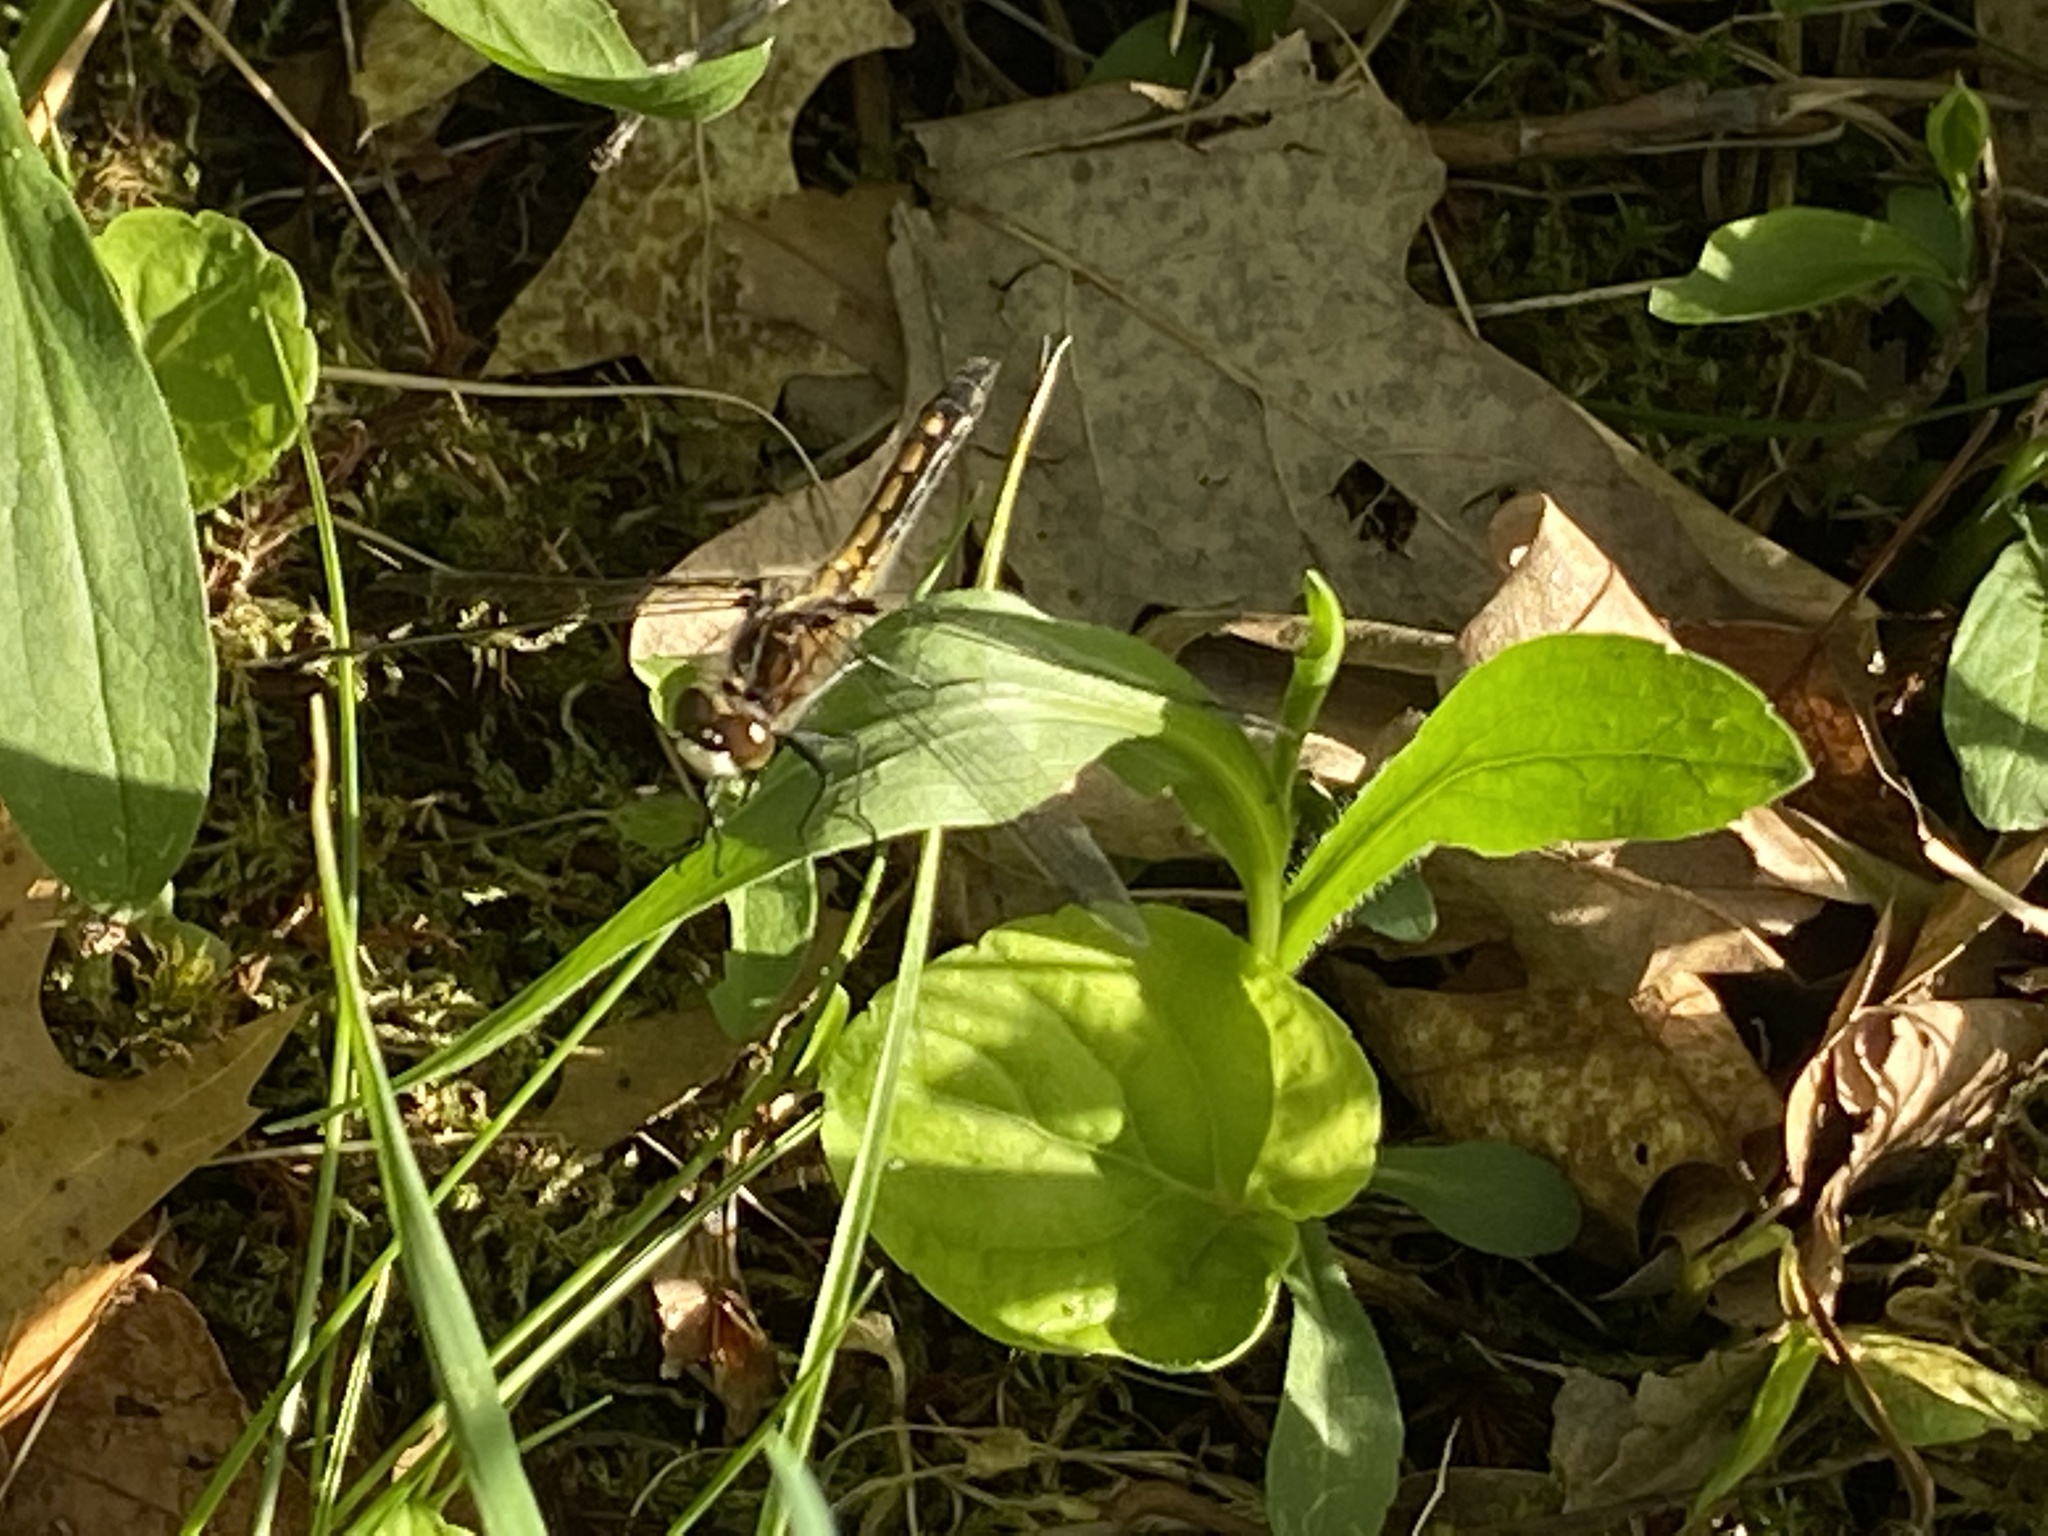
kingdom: Animalia
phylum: Arthropoda
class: Insecta
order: Odonata
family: Libellulidae
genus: Leucorrhinia
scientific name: Leucorrhinia intacta
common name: Dot-tailed whiteface
